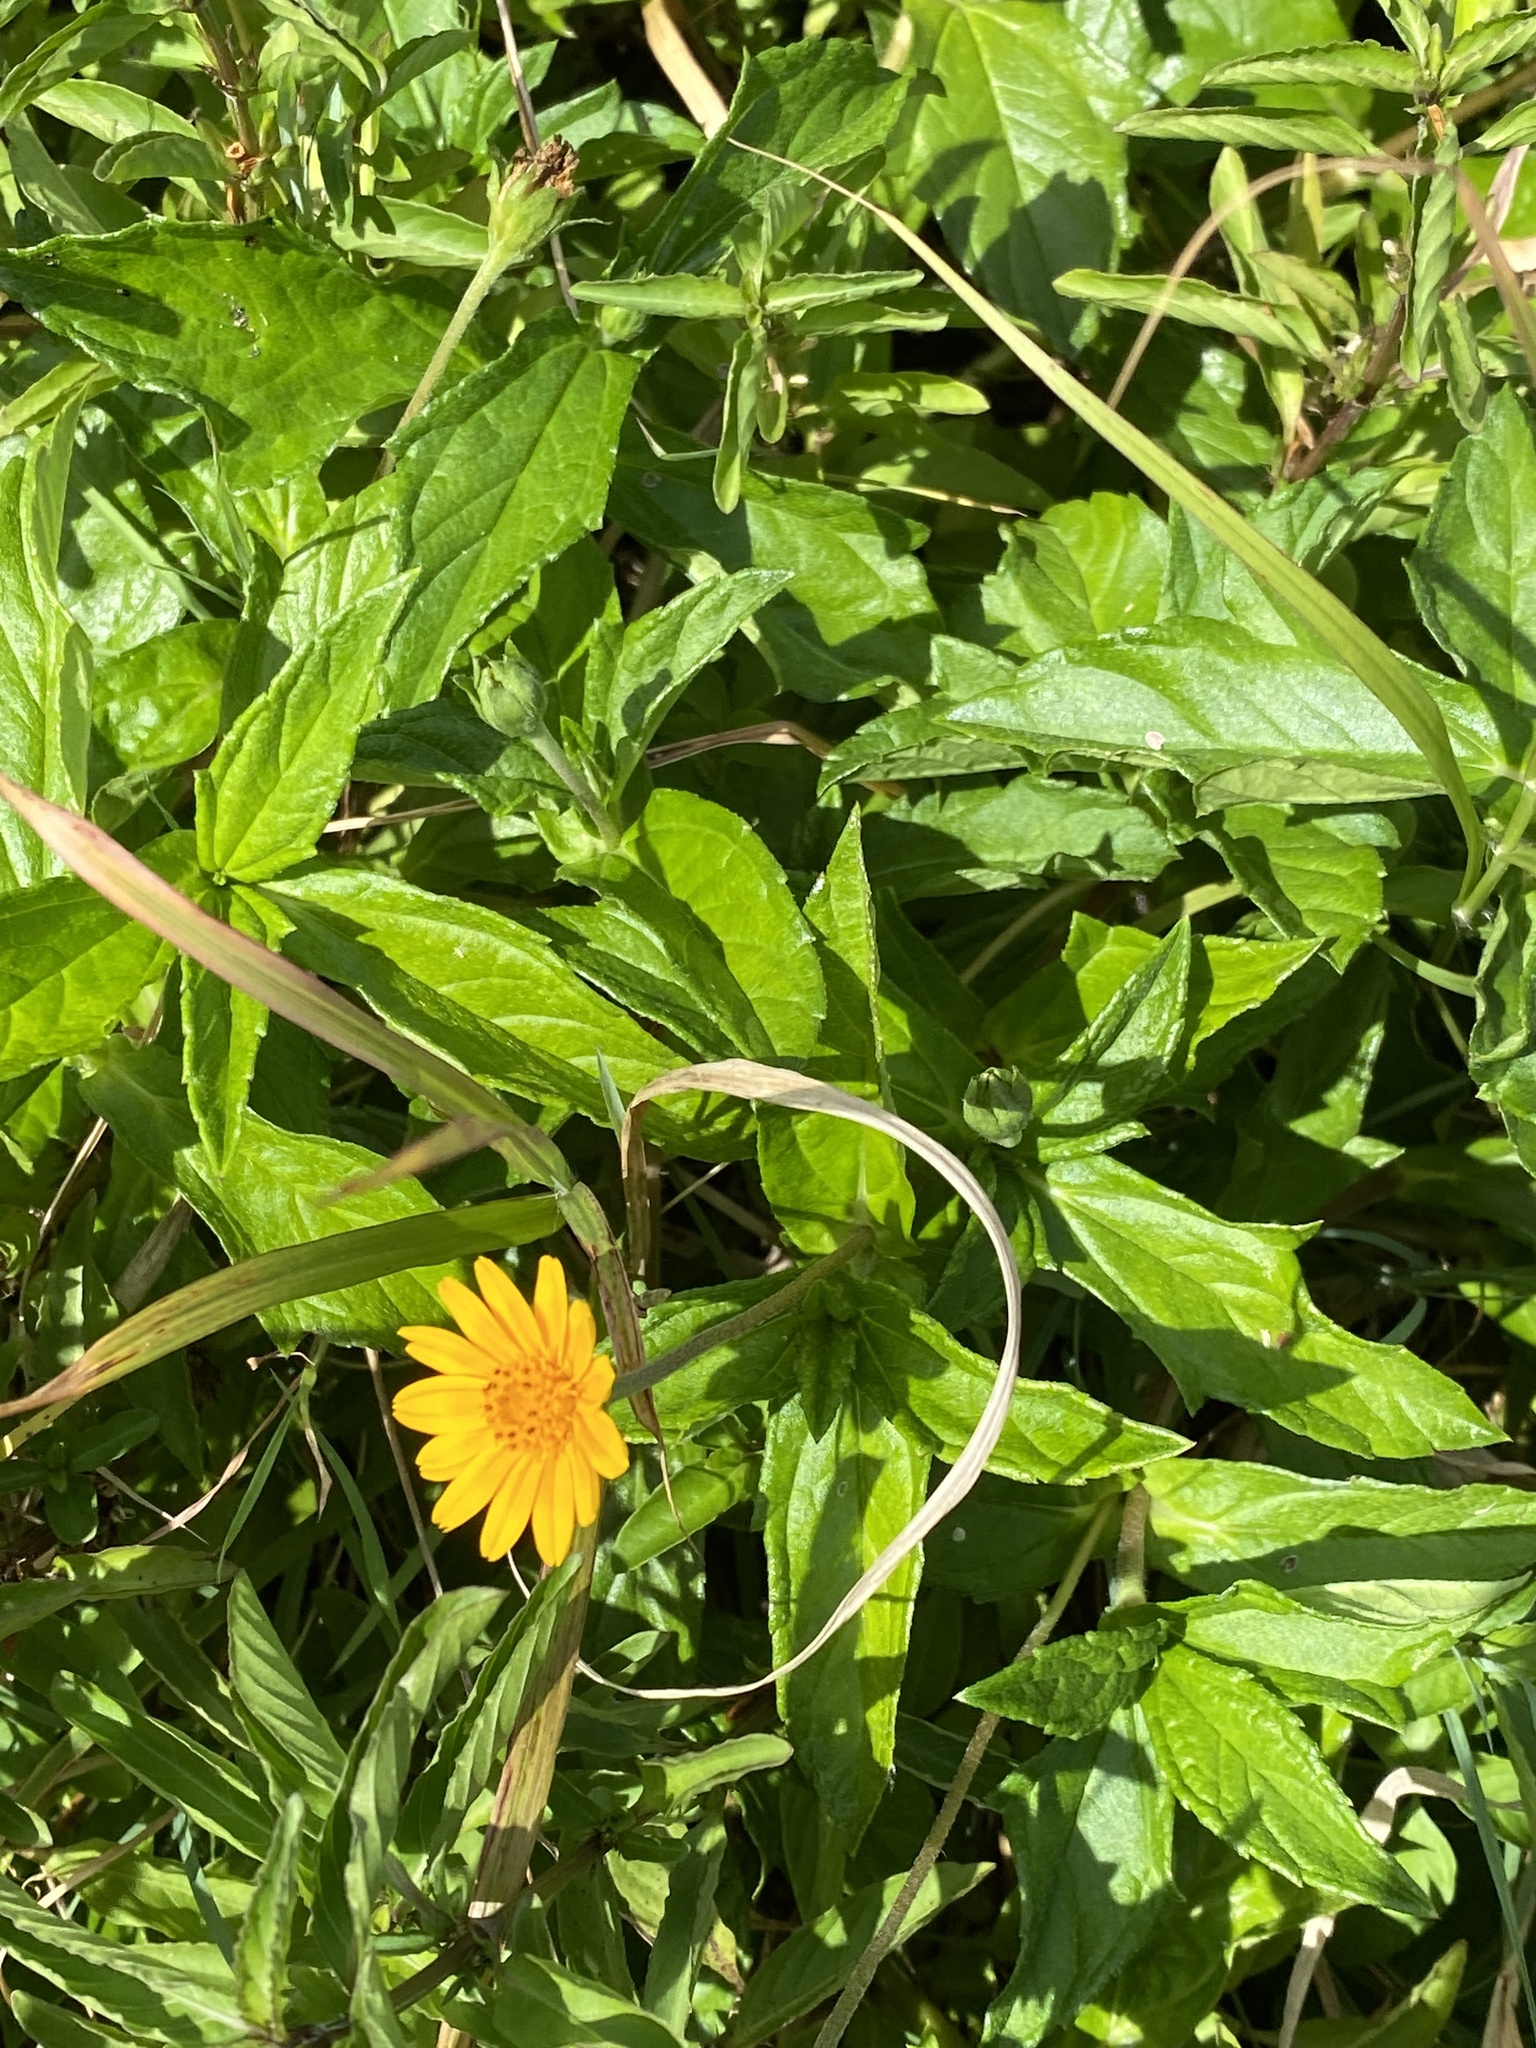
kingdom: Plantae
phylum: Tracheophyta
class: Magnoliopsida
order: Asterales
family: Asteraceae
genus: Sphagneticola
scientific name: Sphagneticola trilobata
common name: Bay biscayne creeping-oxeye
